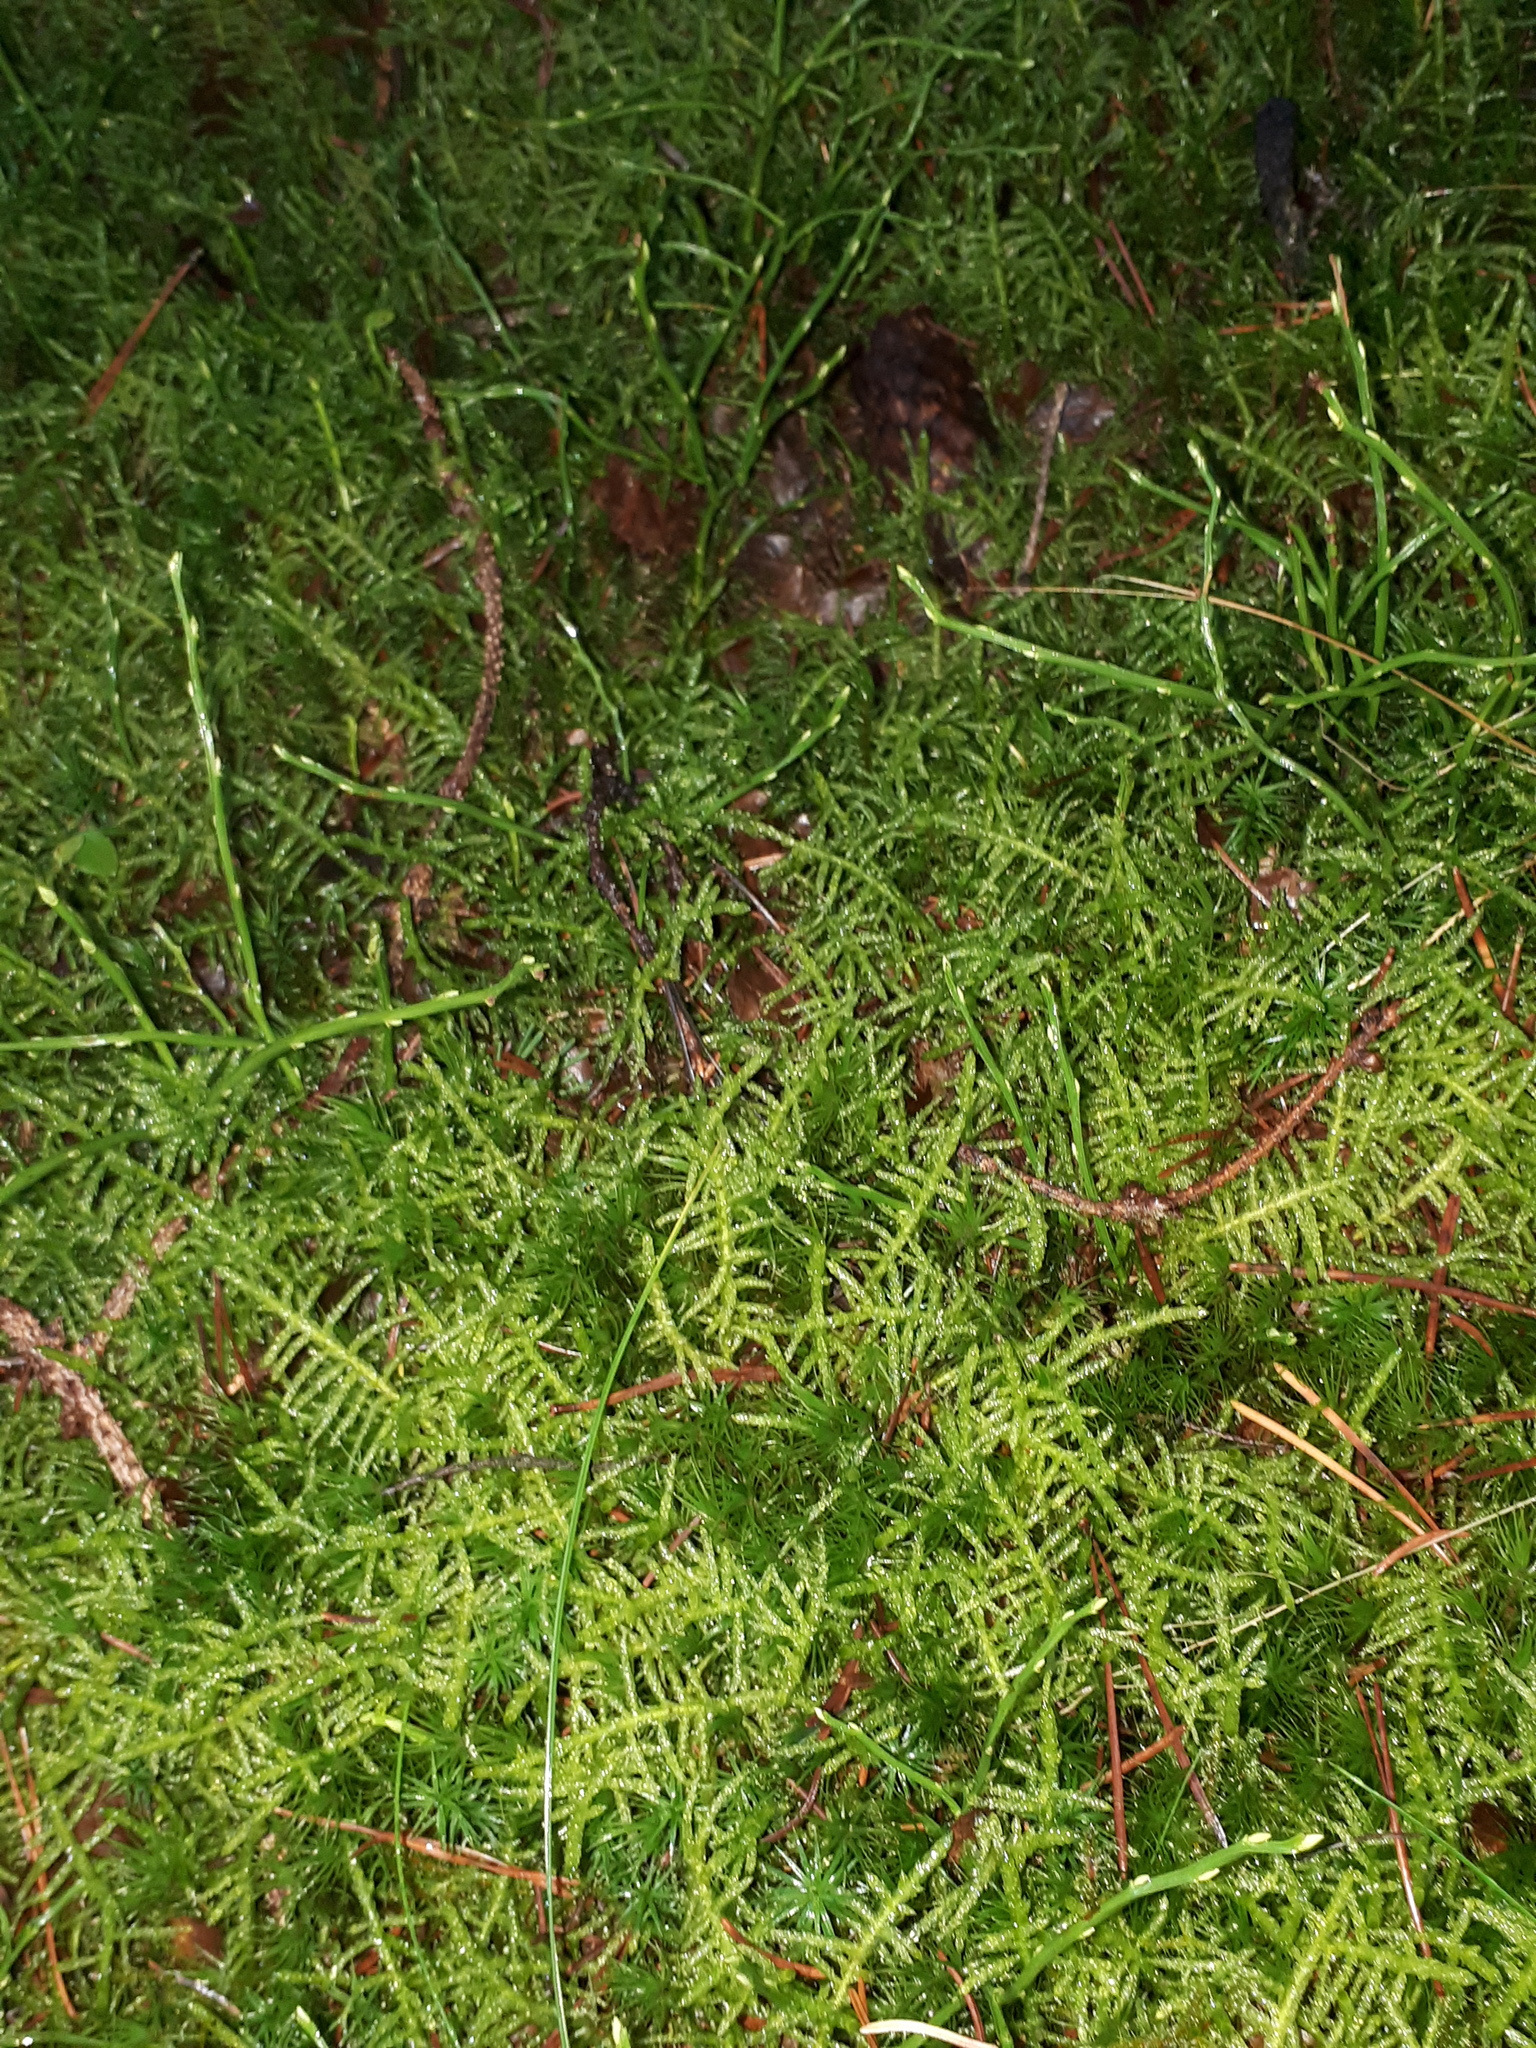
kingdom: Plantae
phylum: Bryophyta
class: Bryopsida
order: Hypnales
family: Brachytheciaceae
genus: Pseudoscleropodium
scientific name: Pseudoscleropodium purum
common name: Neat feather-moss
